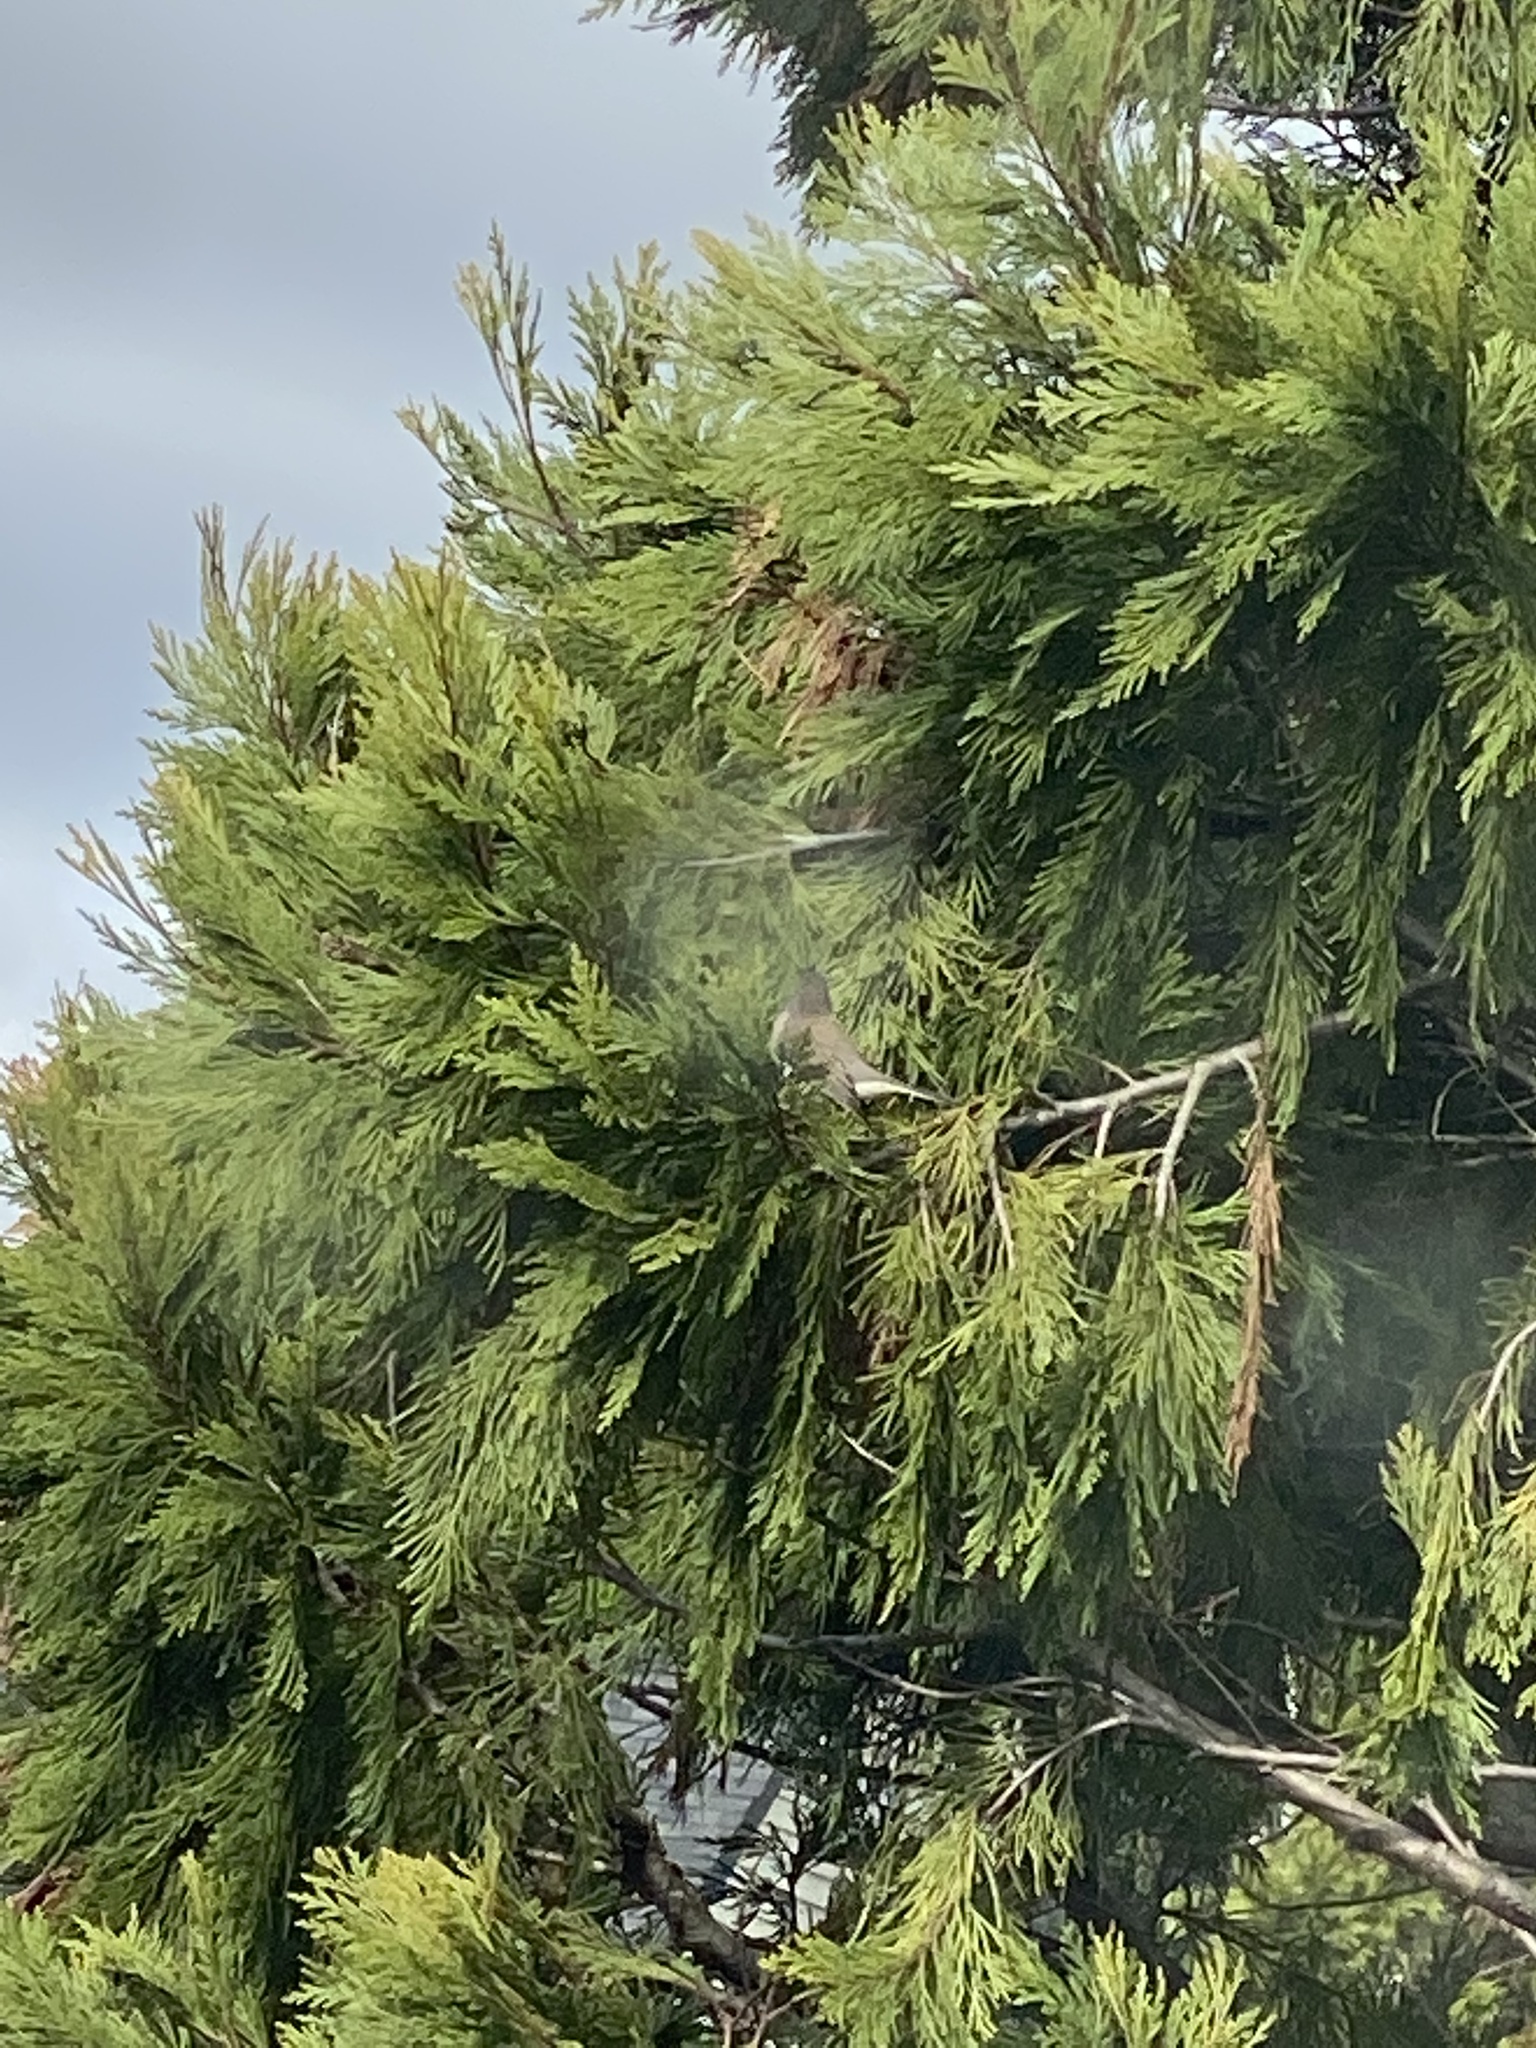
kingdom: Animalia
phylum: Chordata
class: Aves
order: Passeriformes
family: Passerellidae
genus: Junco
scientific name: Junco hyemalis
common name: Dark-eyed junco
